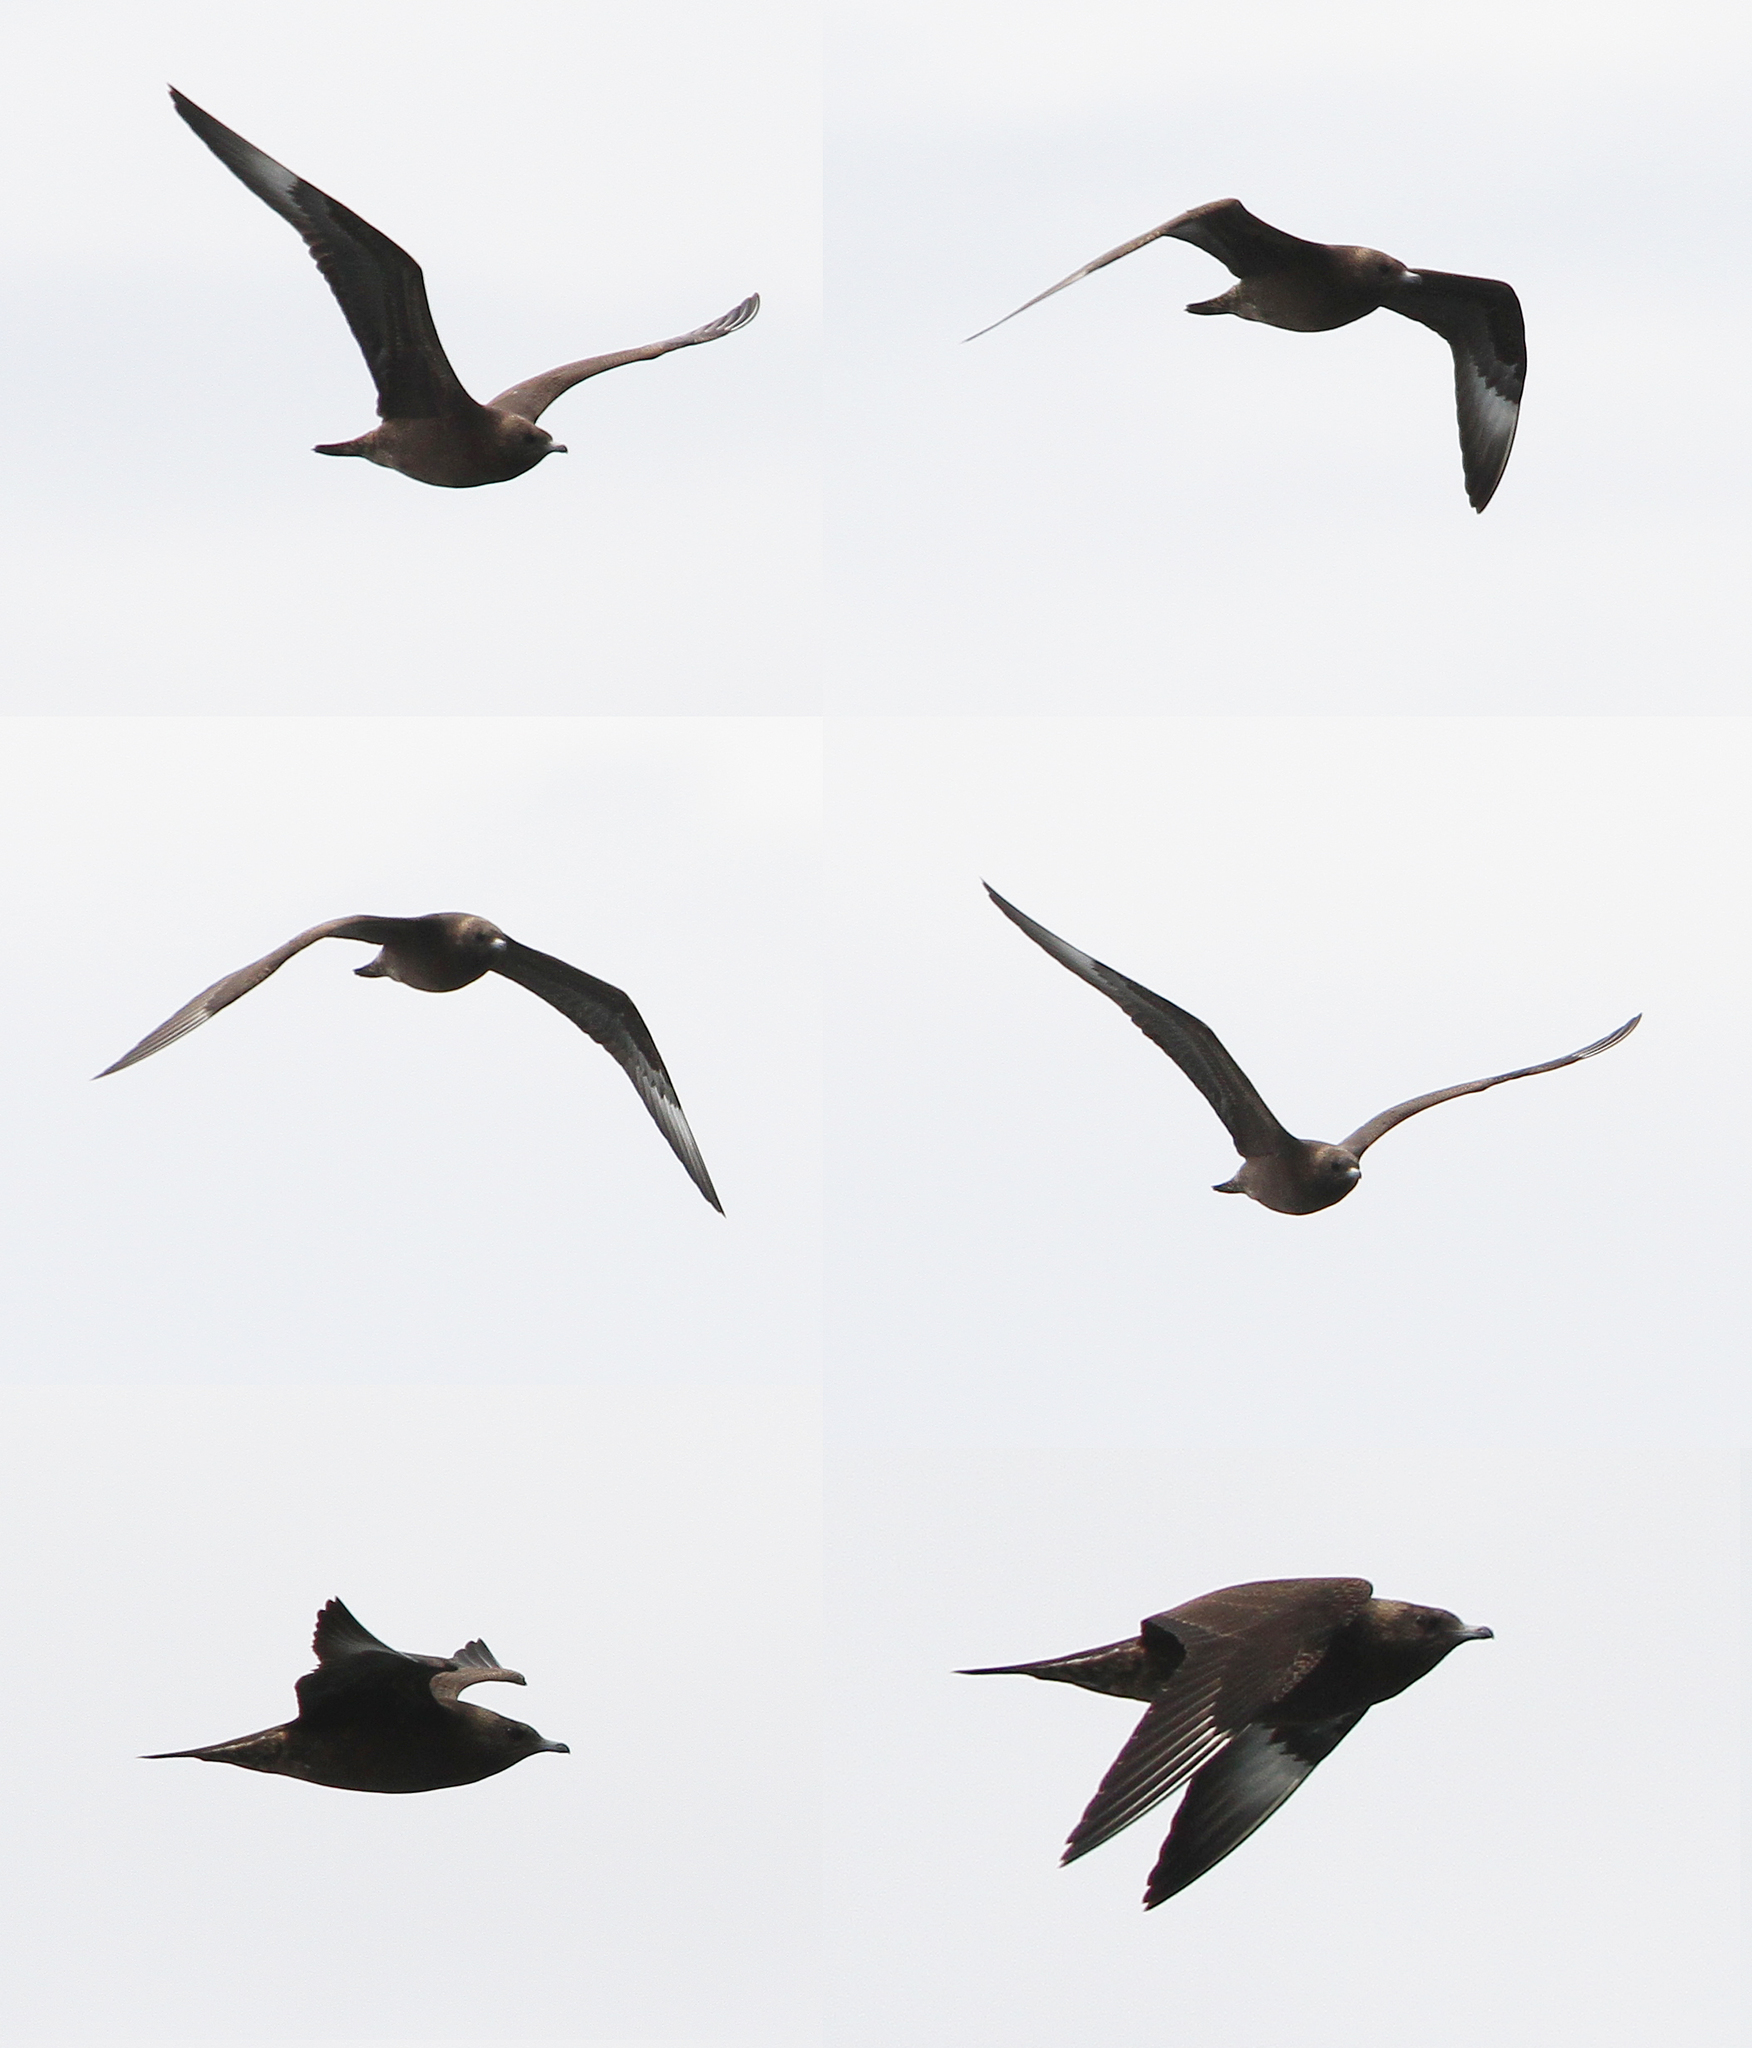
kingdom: Animalia
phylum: Chordata
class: Aves
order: Charadriiformes
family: Stercorariidae
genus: Stercorarius
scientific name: Stercorarius parasiticus
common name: Parasitic jaeger
